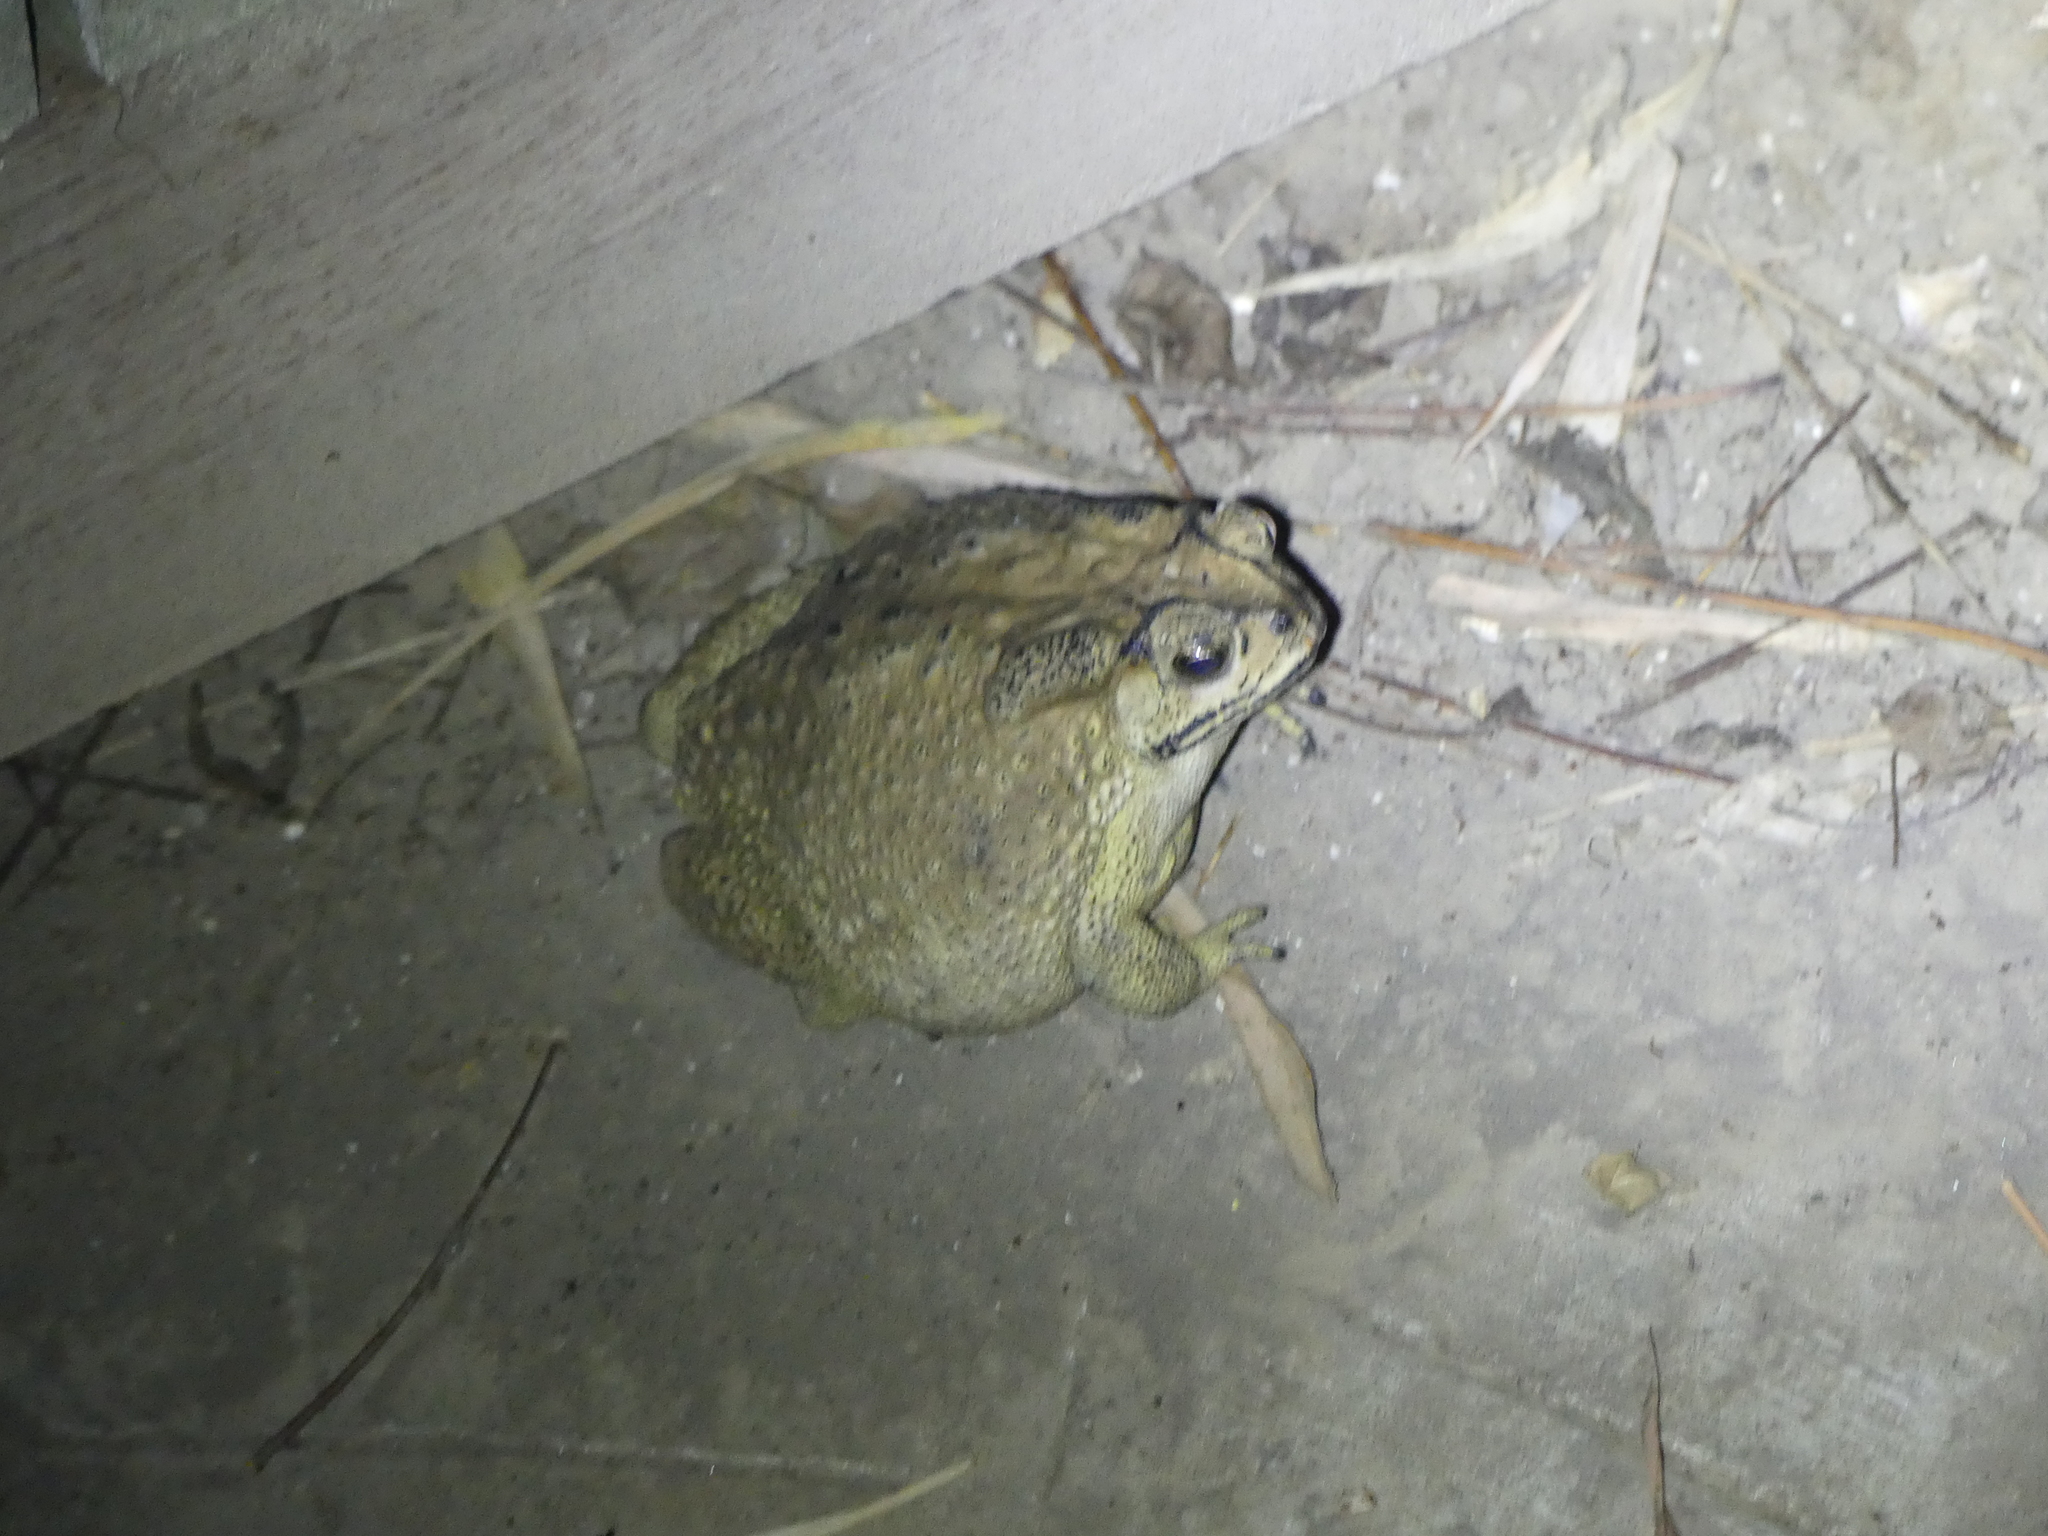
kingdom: Animalia
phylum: Chordata
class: Amphibia
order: Anura
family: Bufonidae
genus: Duttaphrynus
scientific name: Duttaphrynus melanostictus
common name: Common sunda toad
